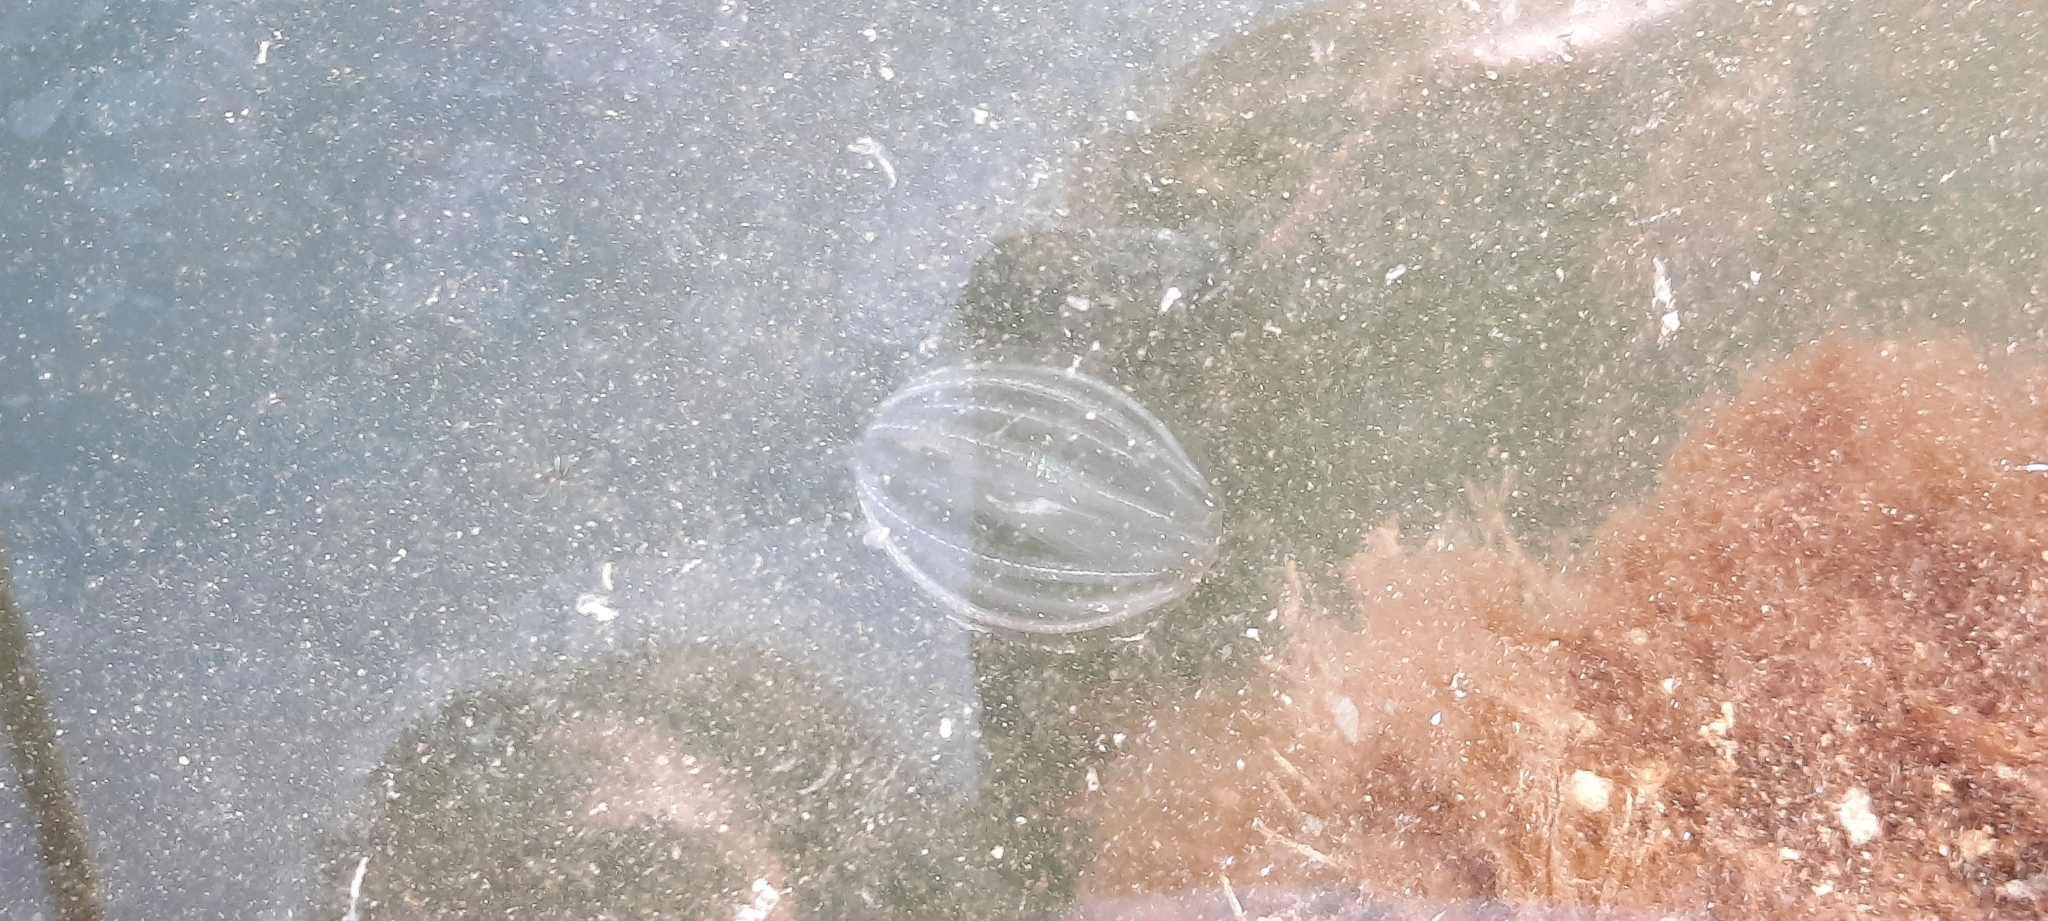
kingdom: Animalia
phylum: Ctenophora
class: Tentaculata
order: Cydippida
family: Pleurobrachiidae
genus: Pleurobrachia
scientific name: Pleurobrachia pileus
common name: Sea gooseberry
